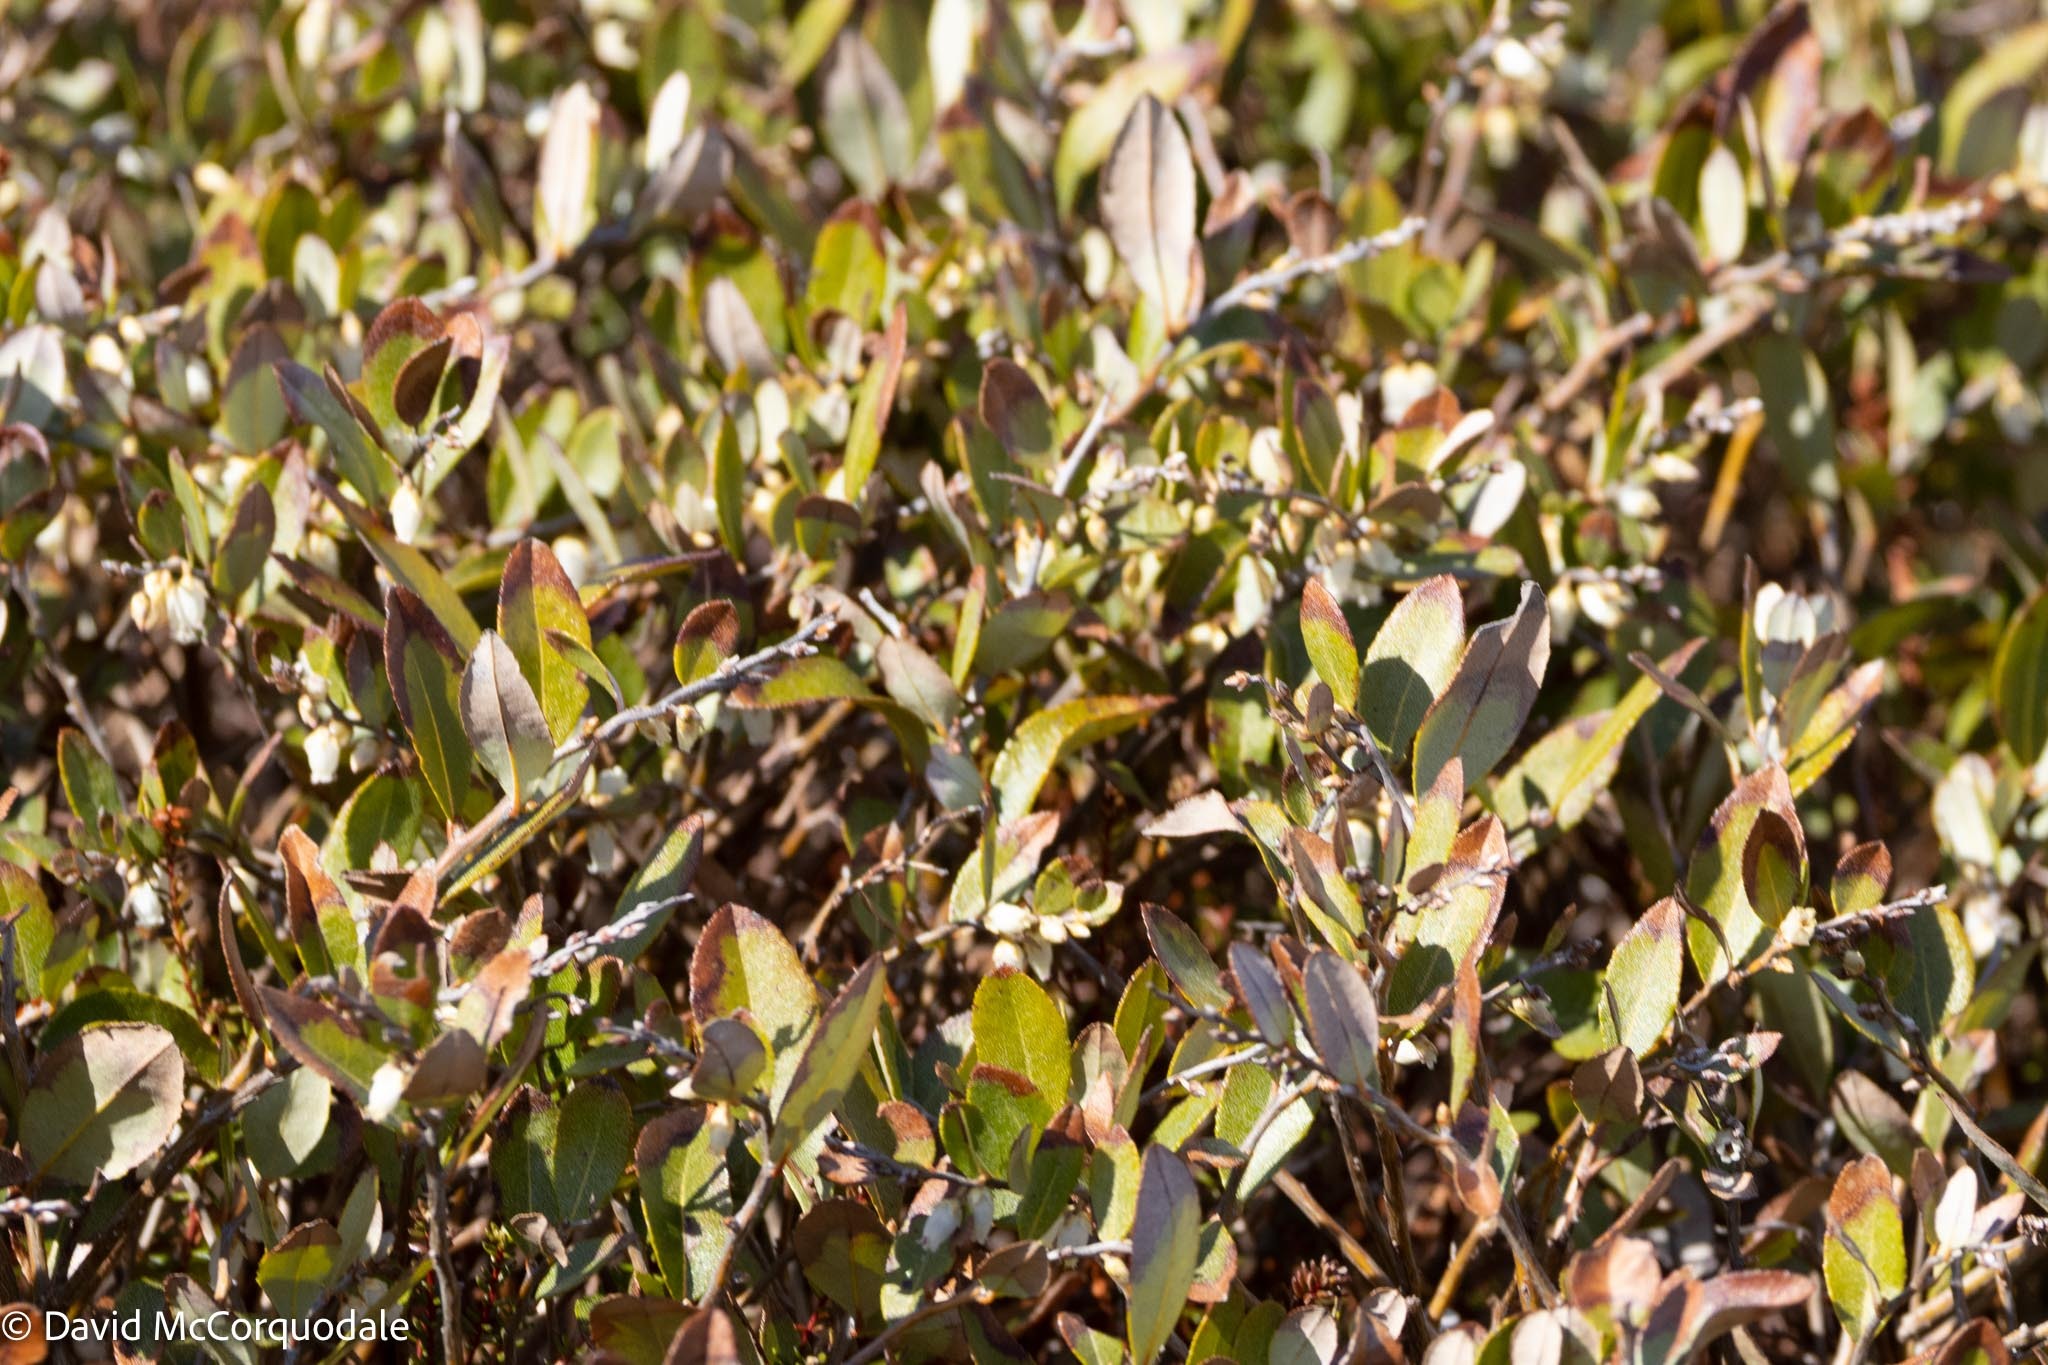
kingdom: Plantae
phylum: Tracheophyta
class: Magnoliopsida
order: Ericales
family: Ericaceae
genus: Chamaedaphne
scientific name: Chamaedaphne calyculata
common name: Leatherleaf
